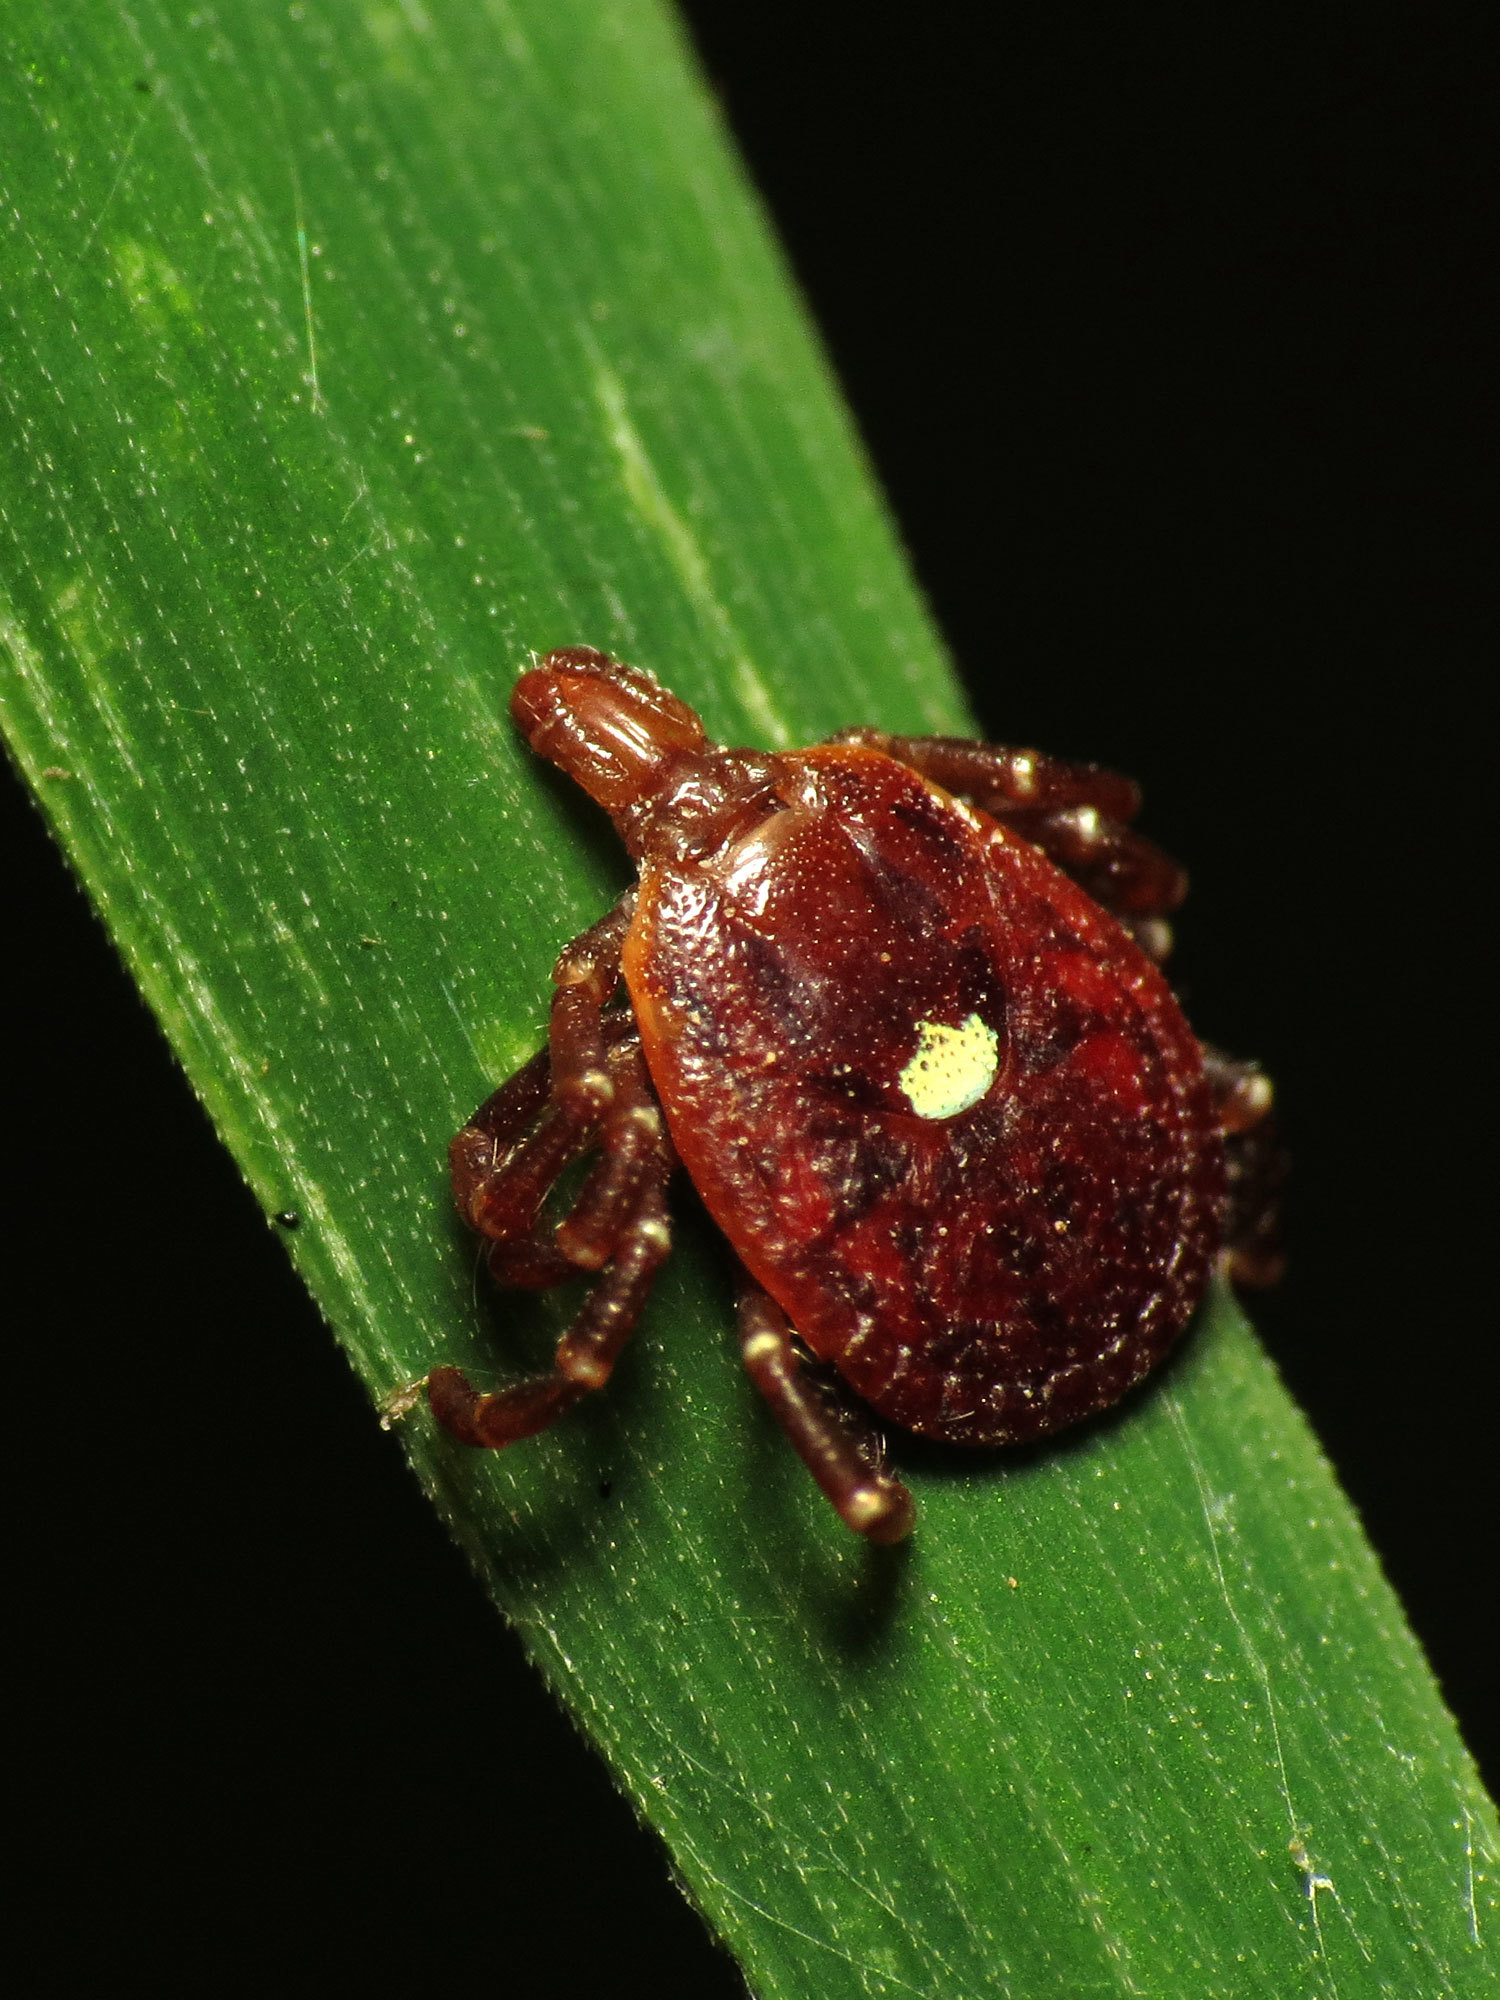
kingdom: Animalia
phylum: Arthropoda
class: Arachnida
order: Ixodida
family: Ixodidae
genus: Amblyomma
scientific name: Amblyomma americanum
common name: Lone star tick
